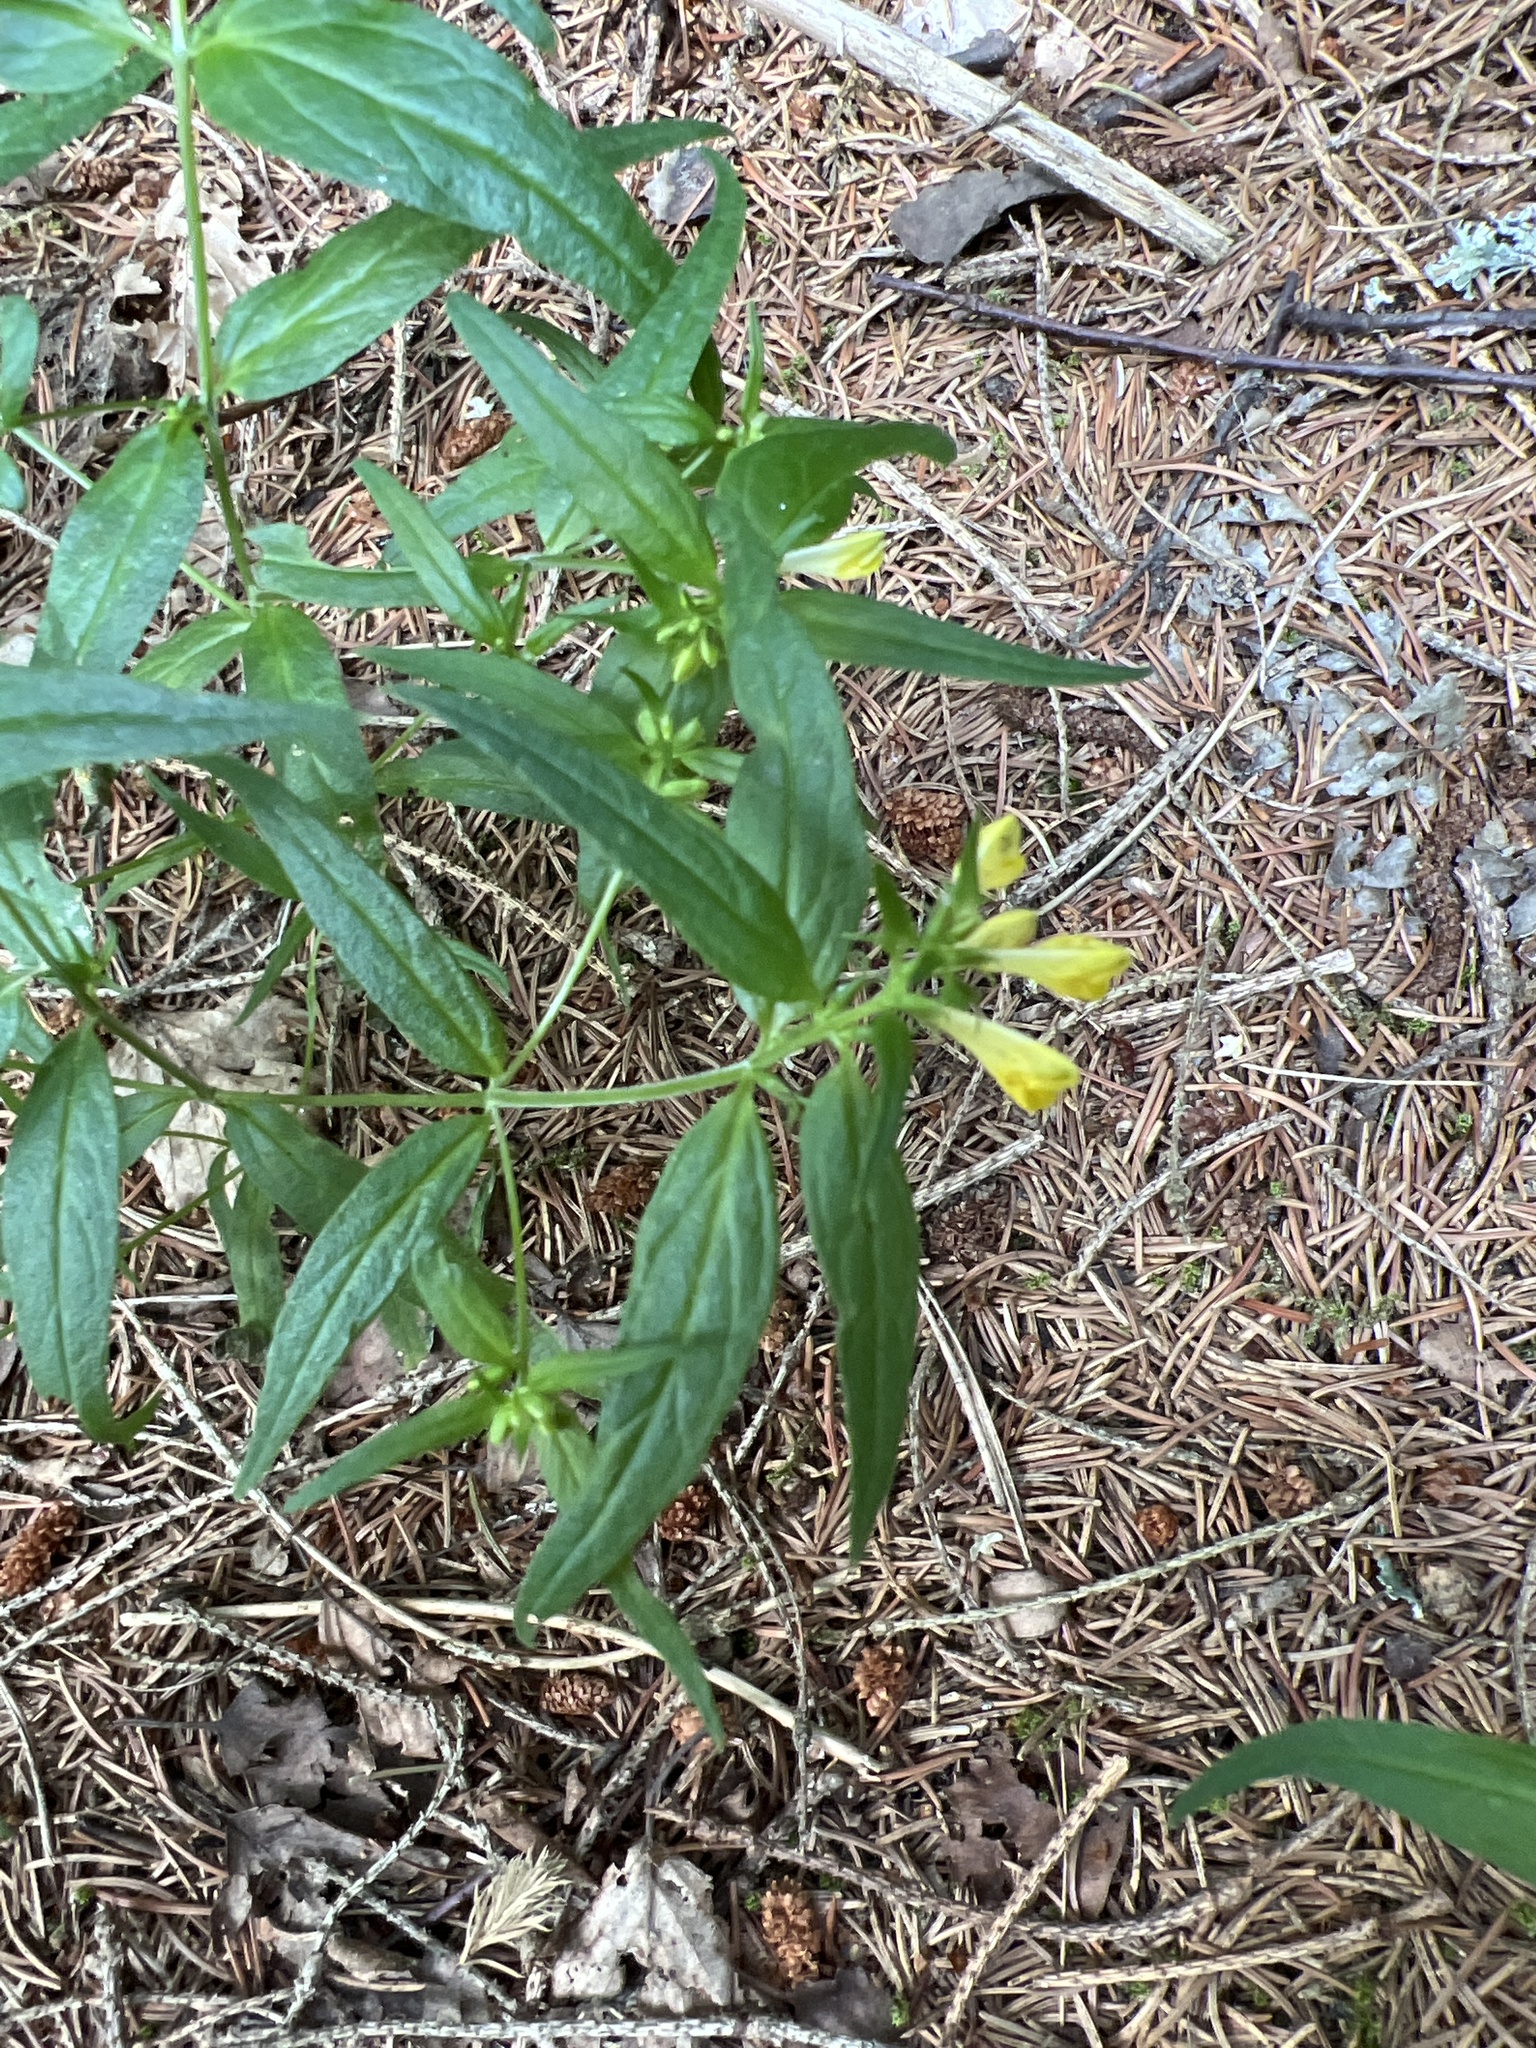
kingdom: Plantae
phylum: Tracheophyta
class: Magnoliopsida
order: Lamiales
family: Orobanchaceae
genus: Melampyrum
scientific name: Melampyrum pratense
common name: Common cow-wheat
